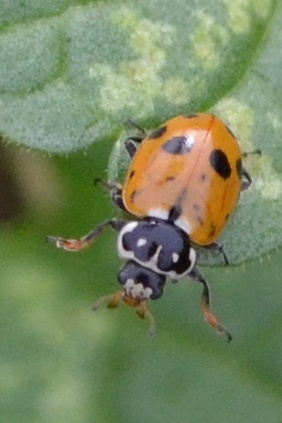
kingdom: Animalia
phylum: Arthropoda
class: Insecta
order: Coleoptera
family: Coccinellidae
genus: Hippodamia
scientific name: Hippodamia variegata
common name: Ladybird beetle
